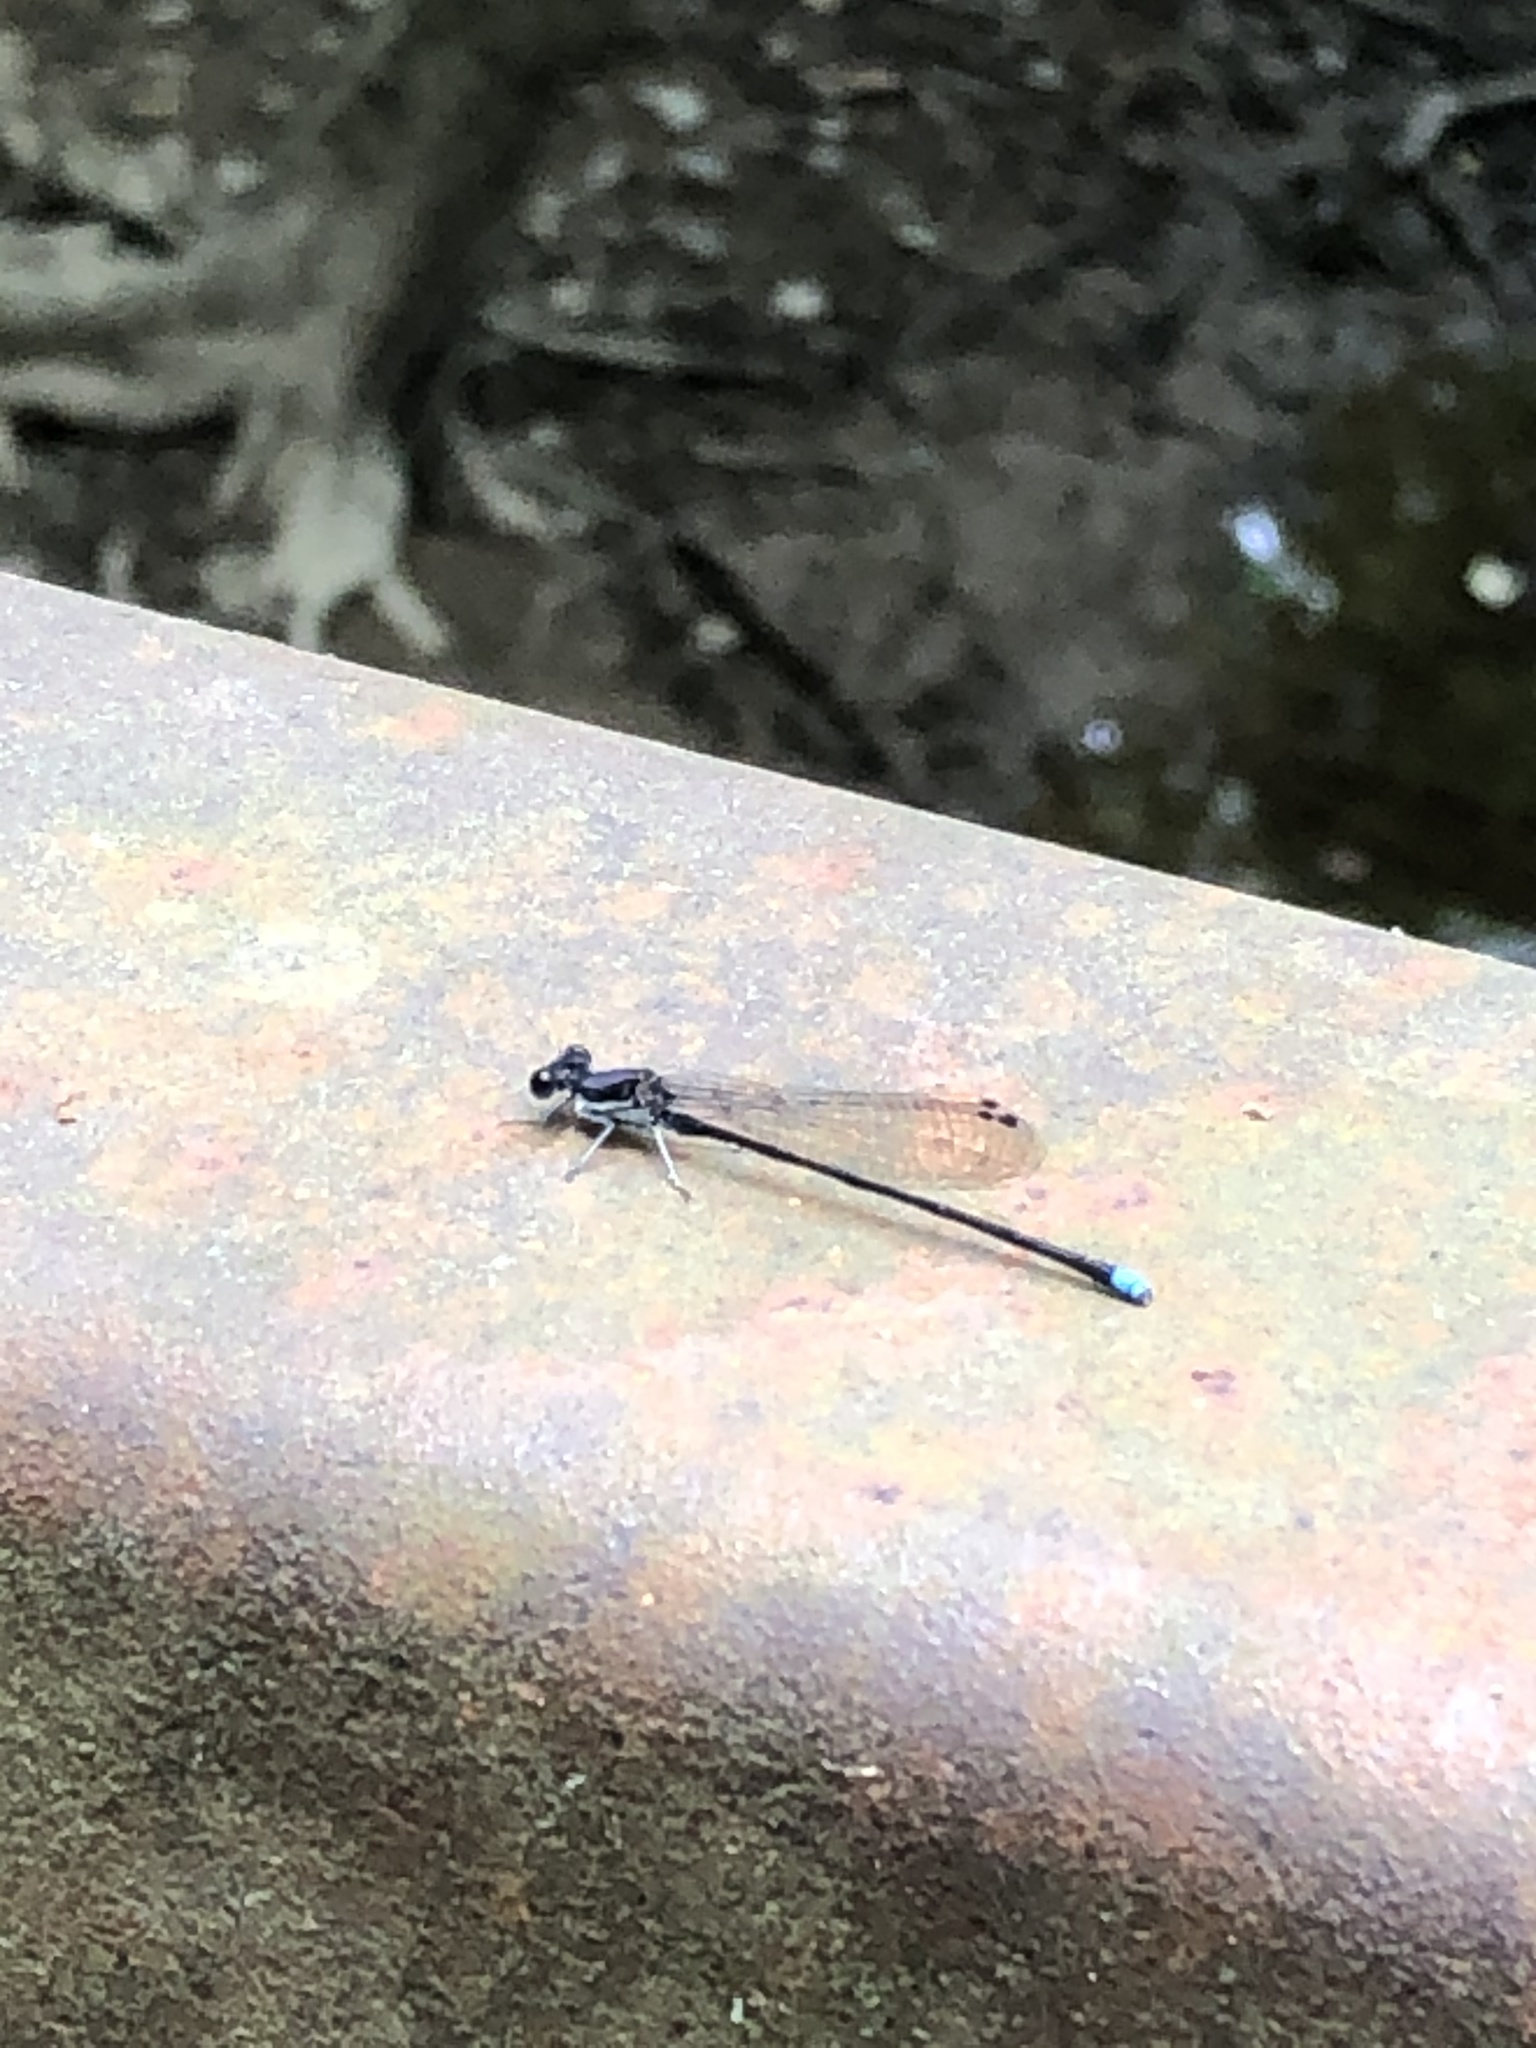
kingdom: Animalia
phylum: Arthropoda
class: Insecta
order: Odonata
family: Coenagrionidae
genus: Argia
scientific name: Argia tibialis
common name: Blue-tipped dancer
